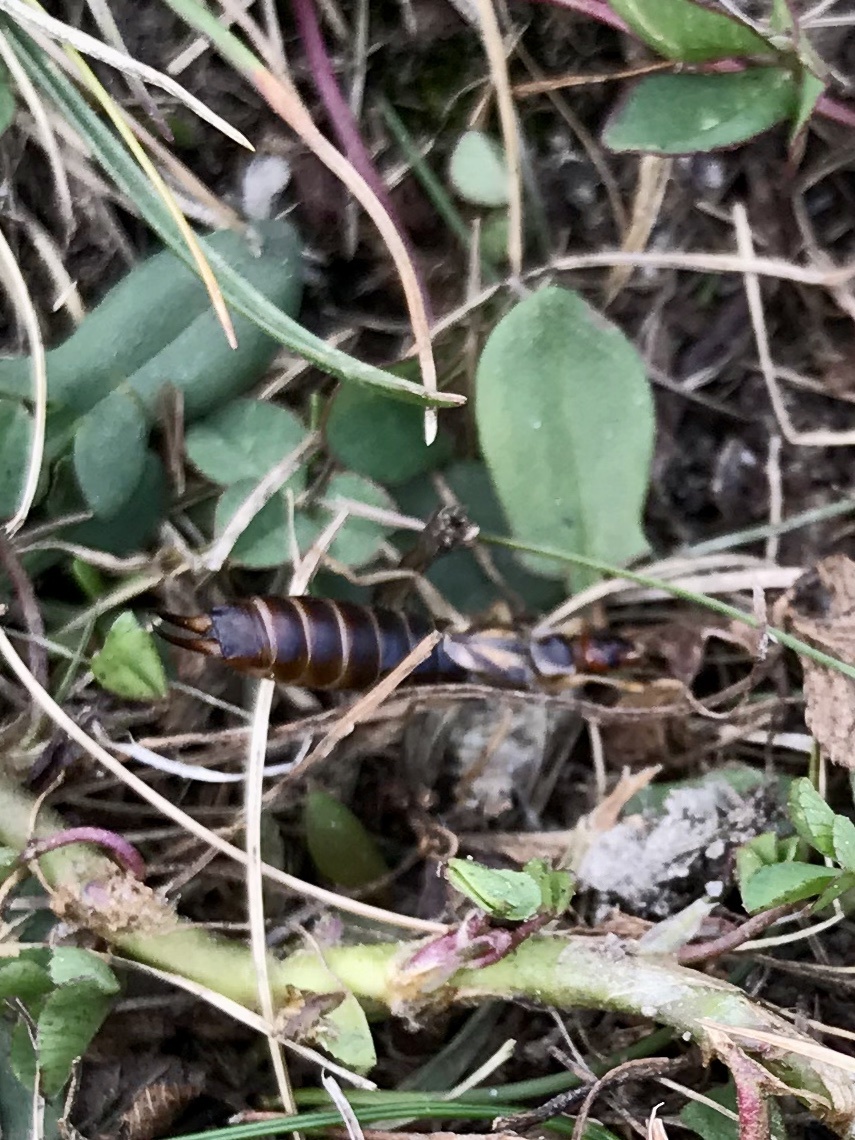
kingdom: Animalia
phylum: Arthropoda
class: Insecta
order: Dermaptera
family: Forficulidae
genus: Forficula
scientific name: Forficula
